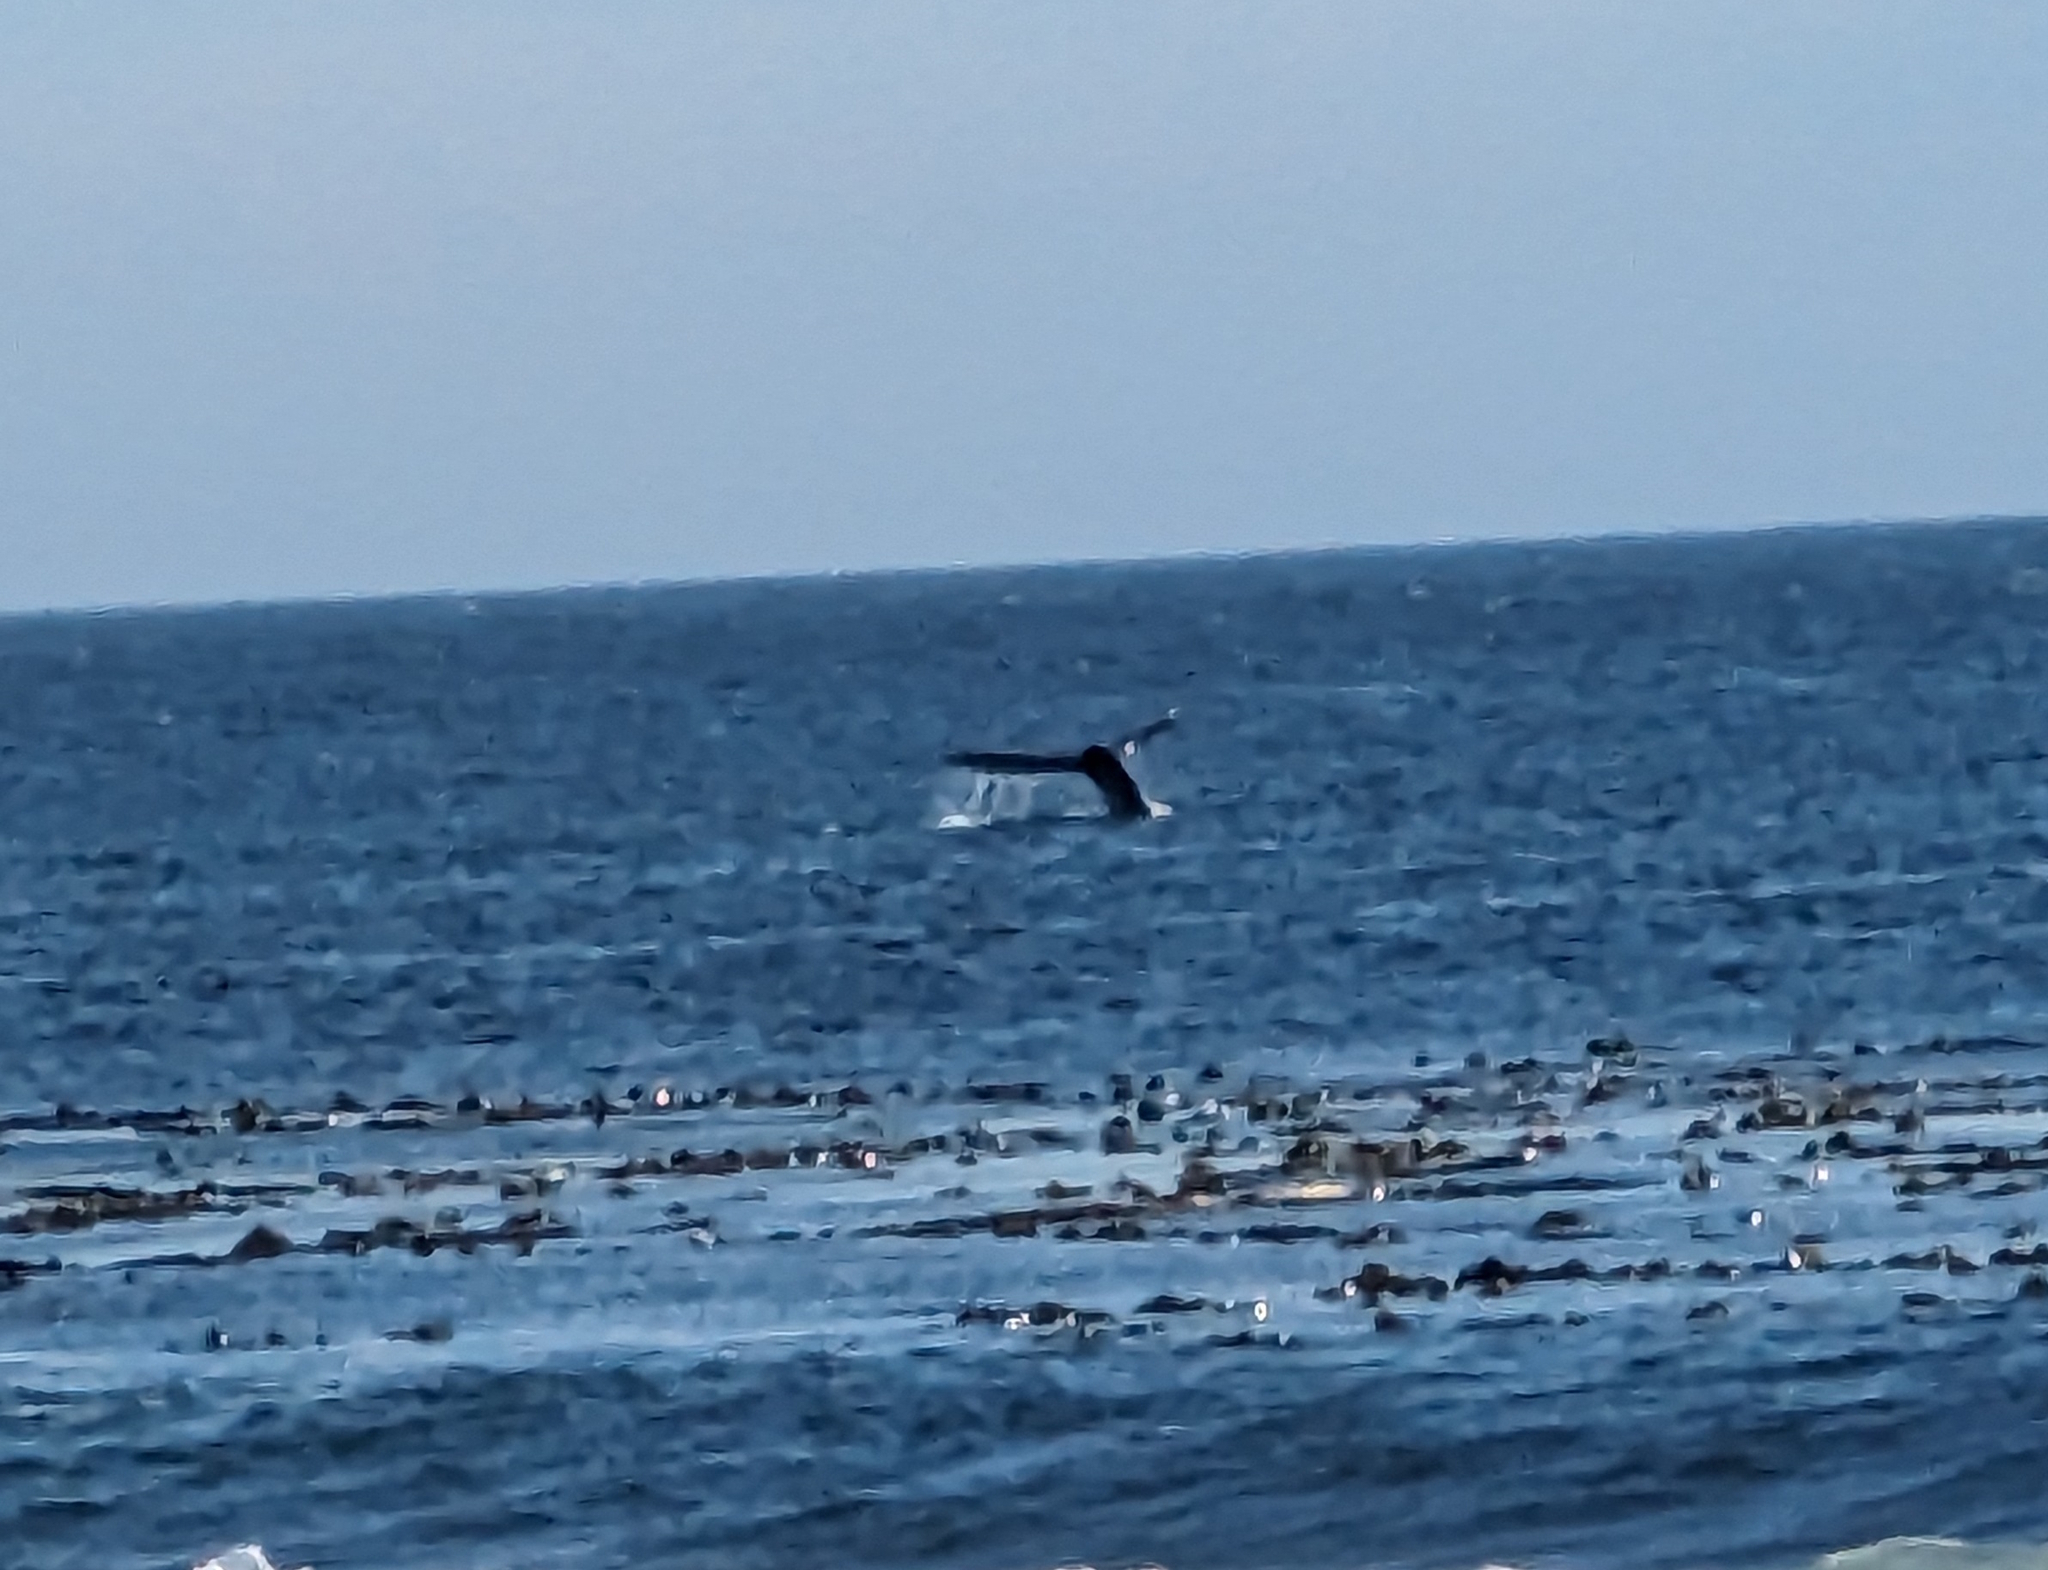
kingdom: Animalia
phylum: Chordata
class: Mammalia
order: Cetacea
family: Balaenopteridae
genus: Megaptera
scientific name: Megaptera novaeangliae
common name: Humpback whale
